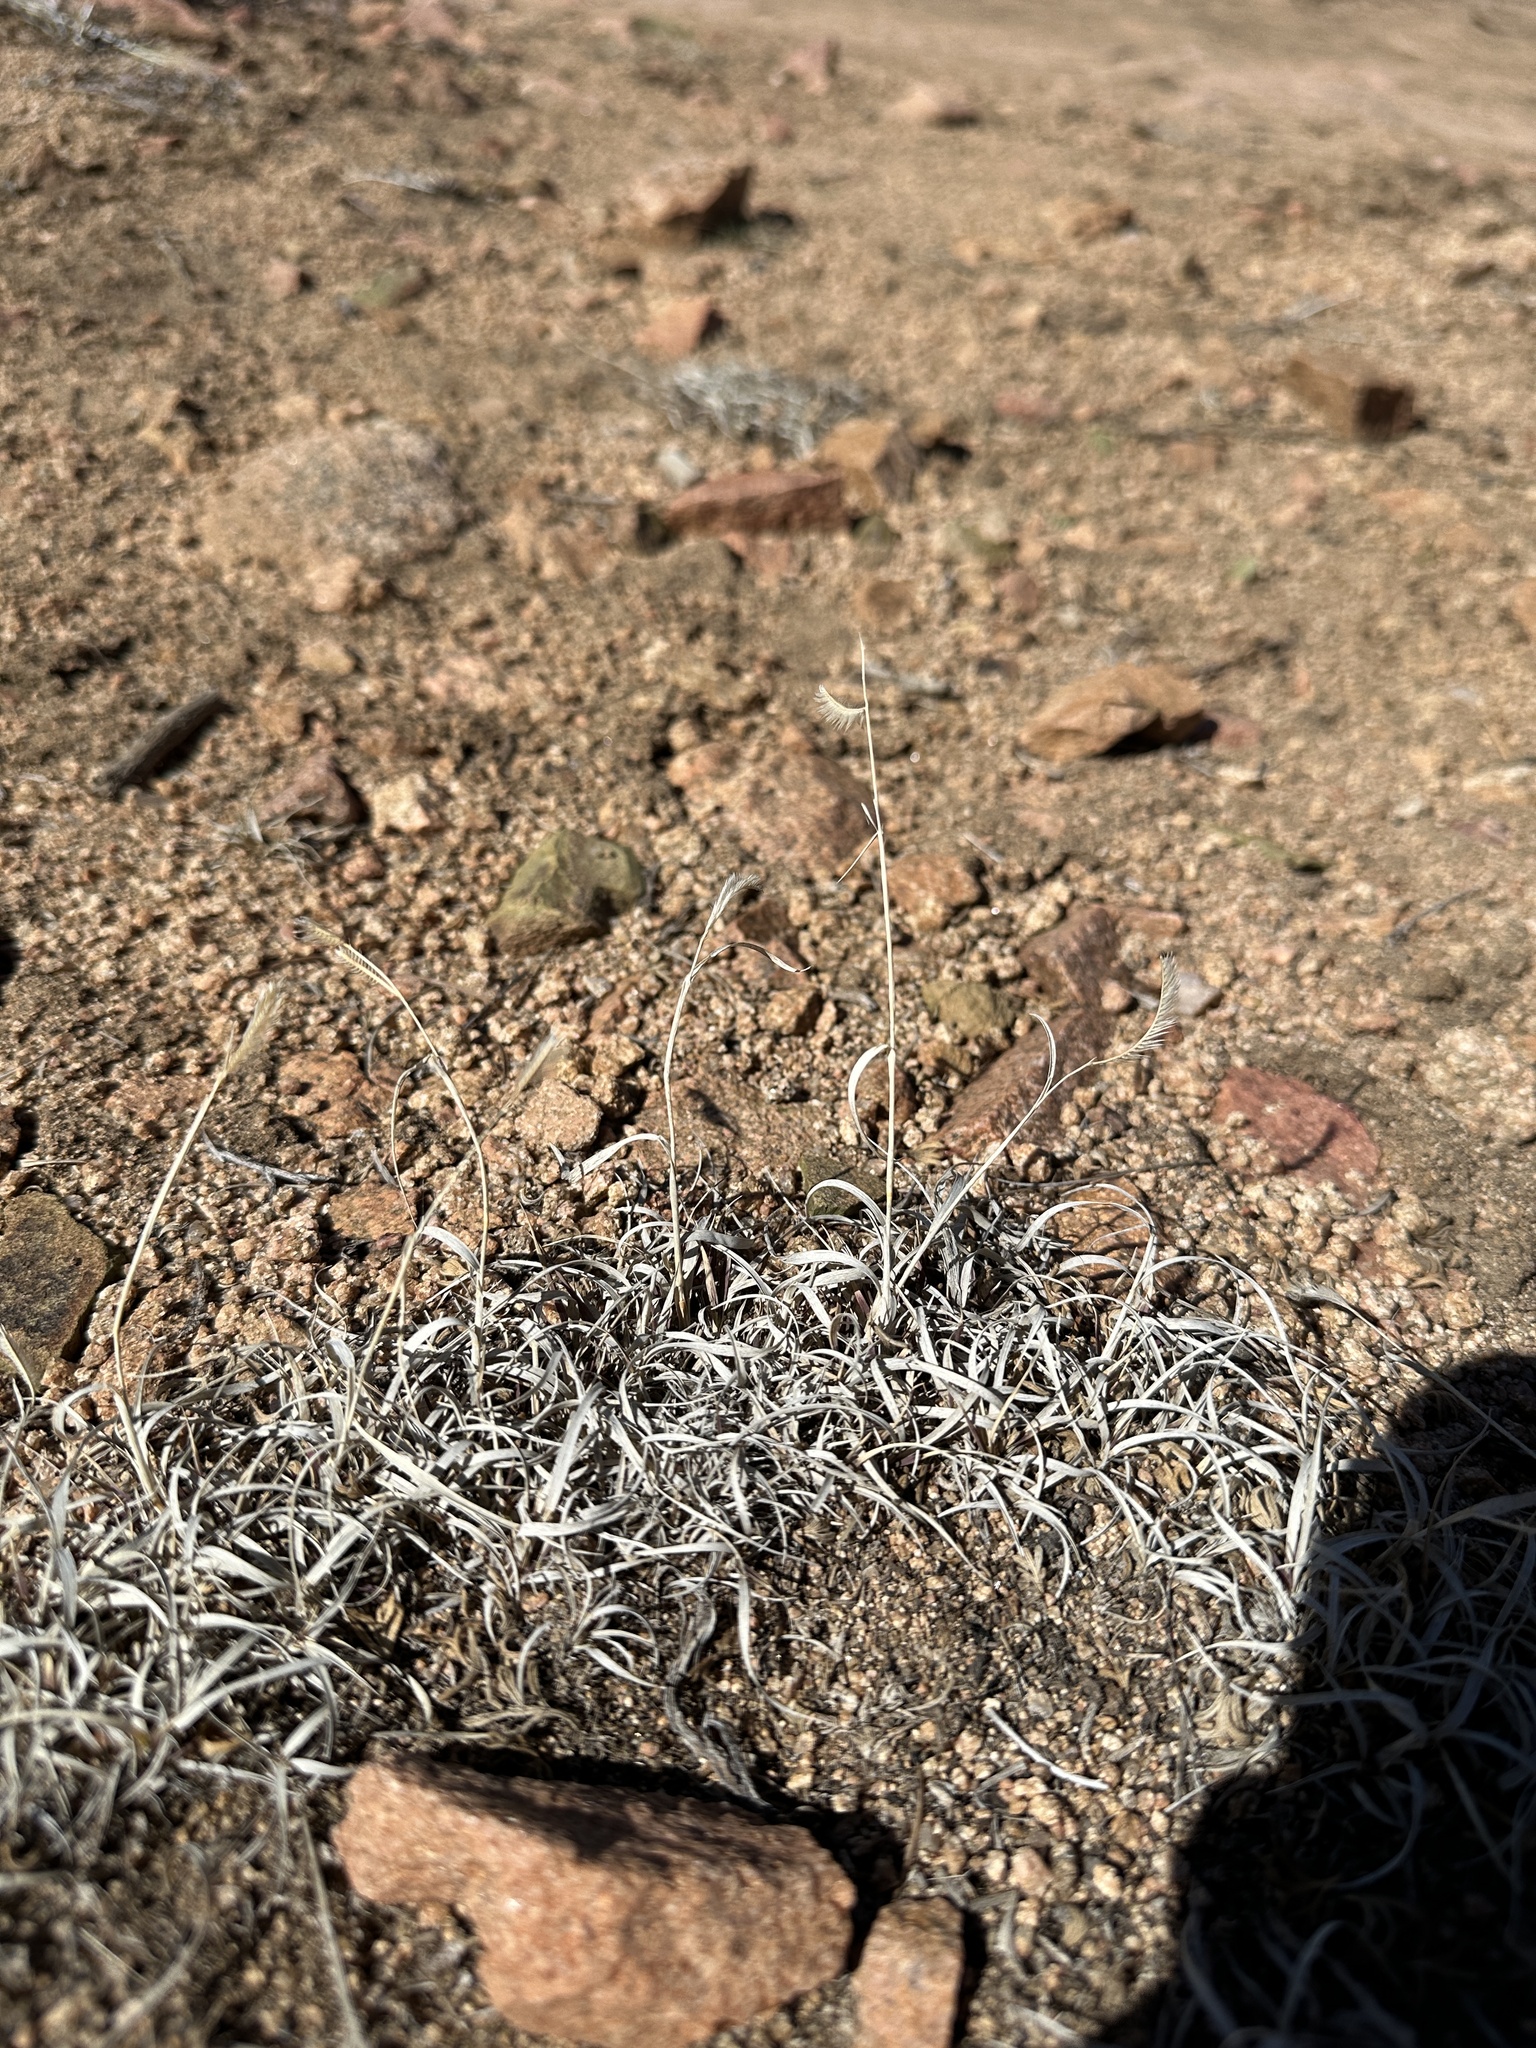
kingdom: Plantae
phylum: Tracheophyta
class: Liliopsida
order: Poales
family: Poaceae
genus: Bouteloua
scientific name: Bouteloua gracilis
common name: Blue grama
